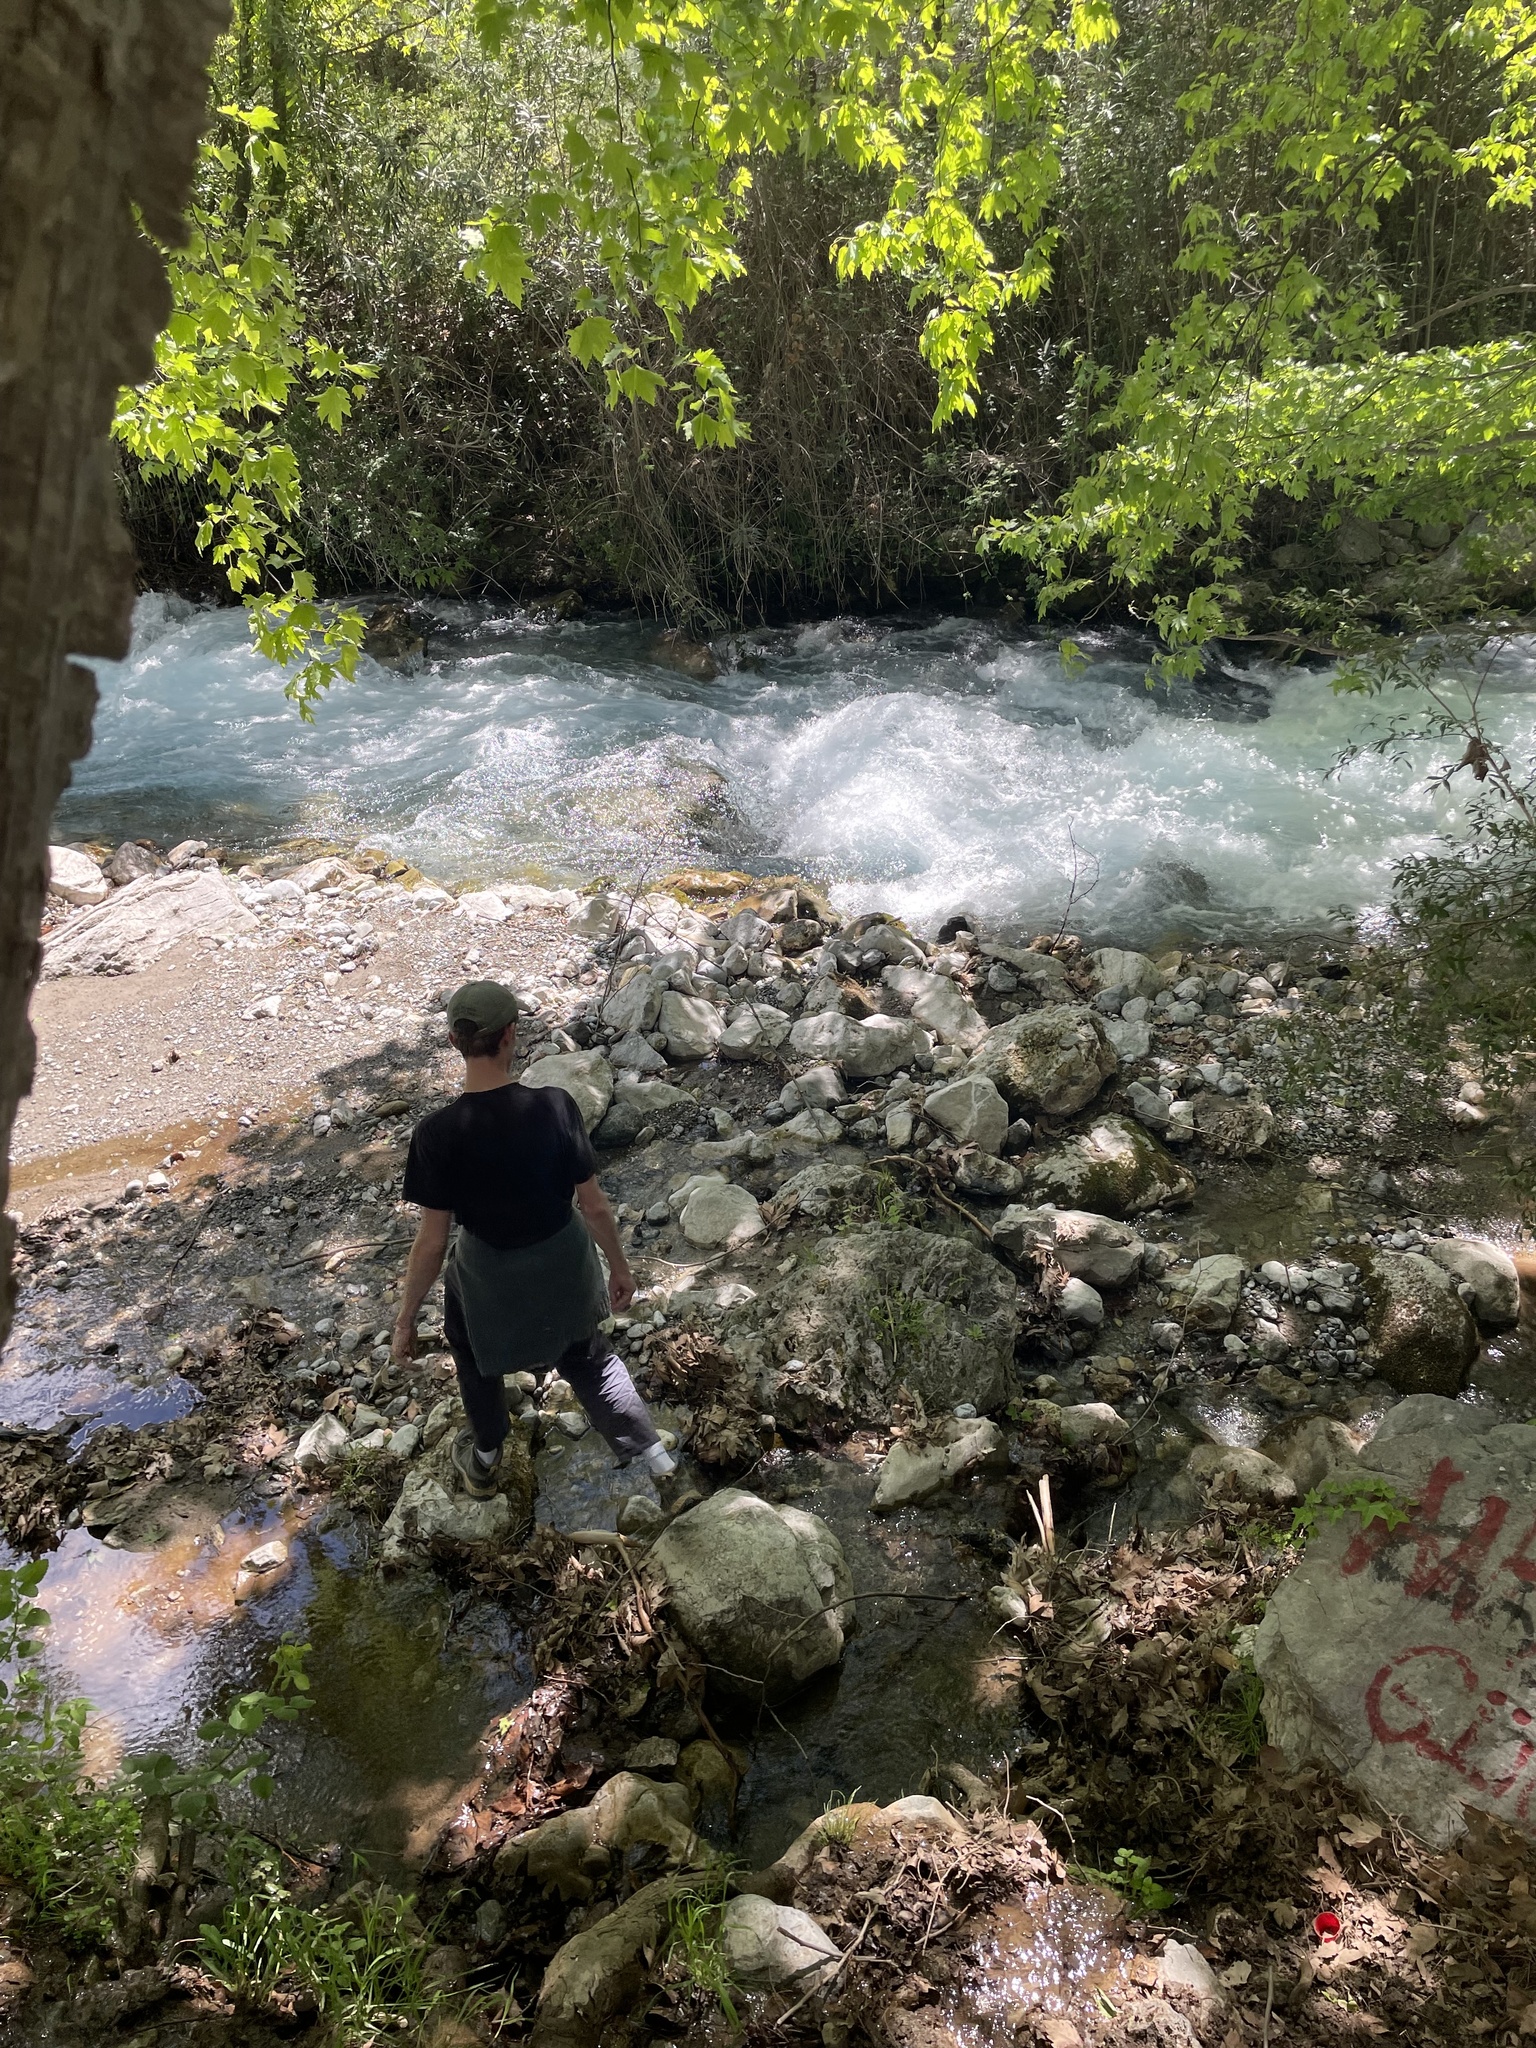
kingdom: Plantae
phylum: Tracheophyta
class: Polypodiopsida
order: Polypodiales
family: Pteridaceae
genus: Adiantum
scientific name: Adiantum capillus-veneris
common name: Maidenhair fern
